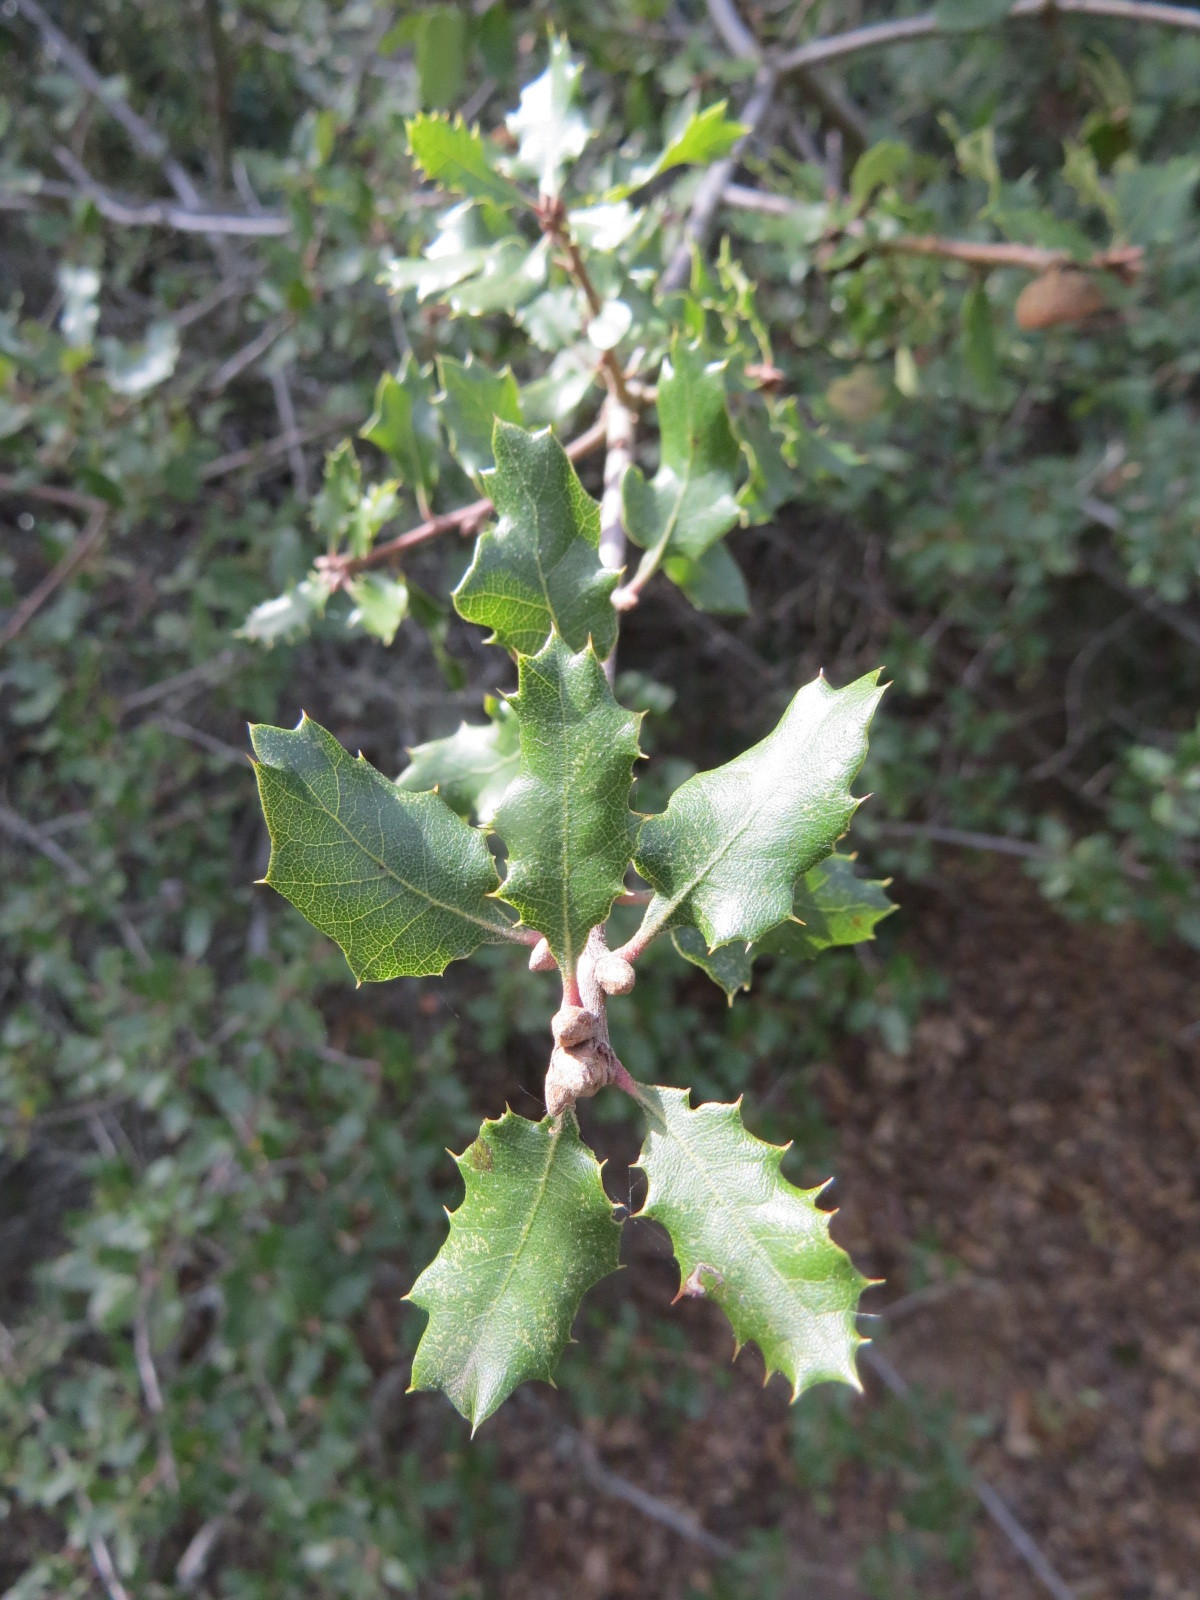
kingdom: Plantae
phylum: Tracheophyta
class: Magnoliopsida
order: Fagales
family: Fagaceae
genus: Quercus
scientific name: Quercus berberidifolia
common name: California scrub oak
